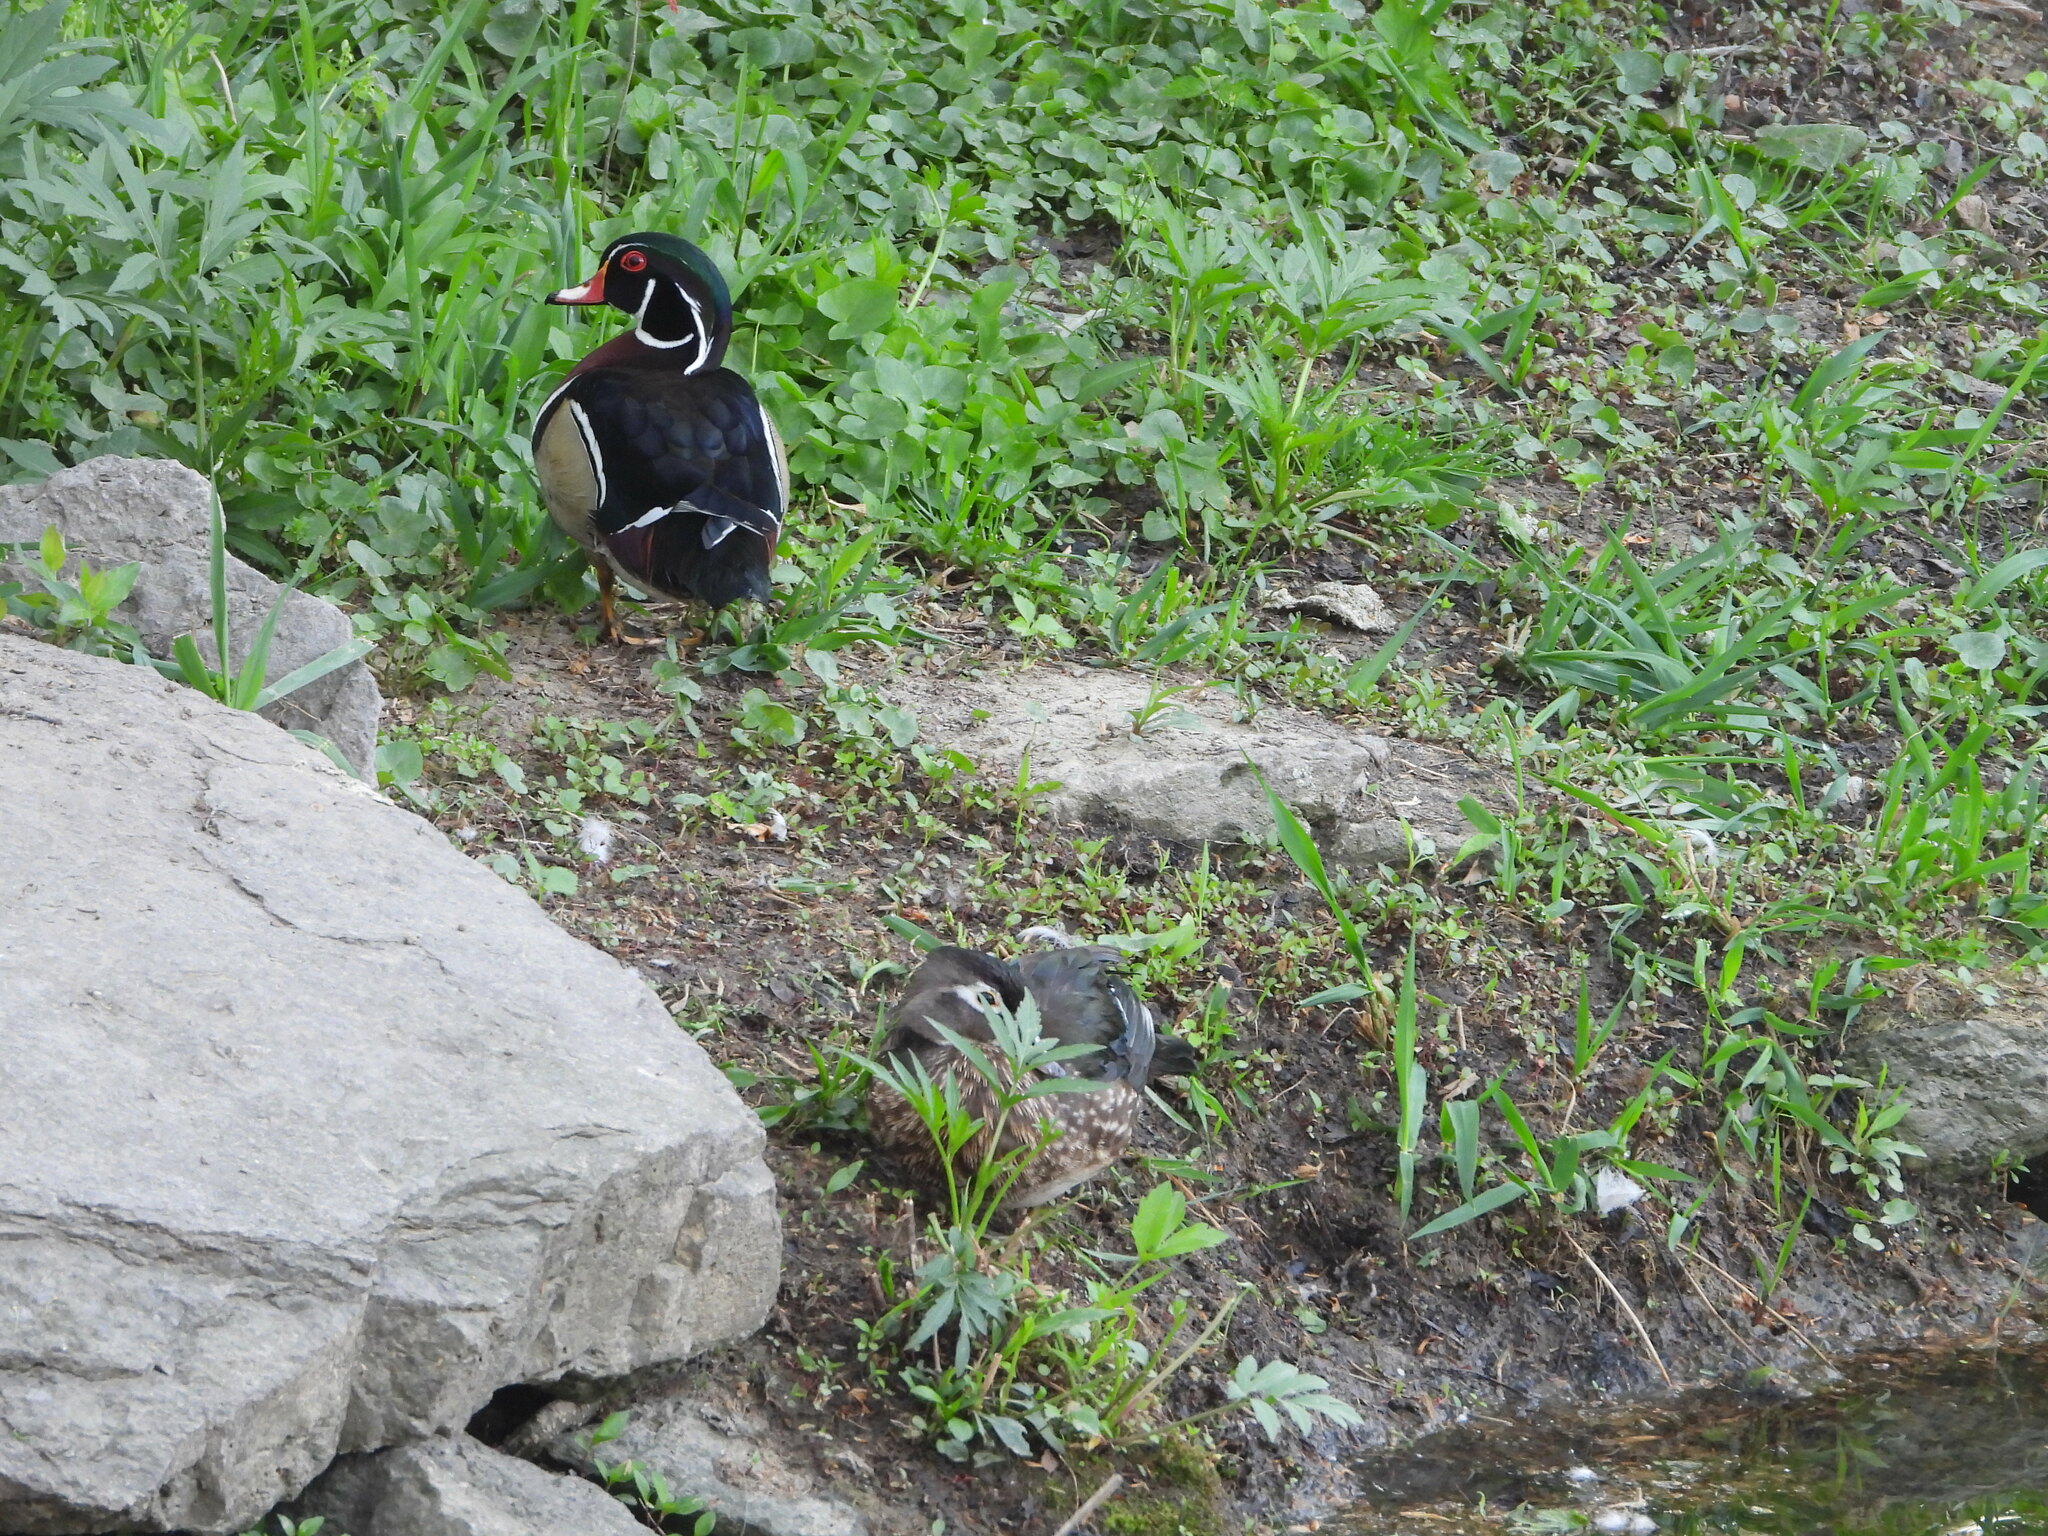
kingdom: Animalia
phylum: Chordata
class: Aves
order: Anseriformes
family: Anatidae
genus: Aix
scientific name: Aix sponsa
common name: Wood duck
